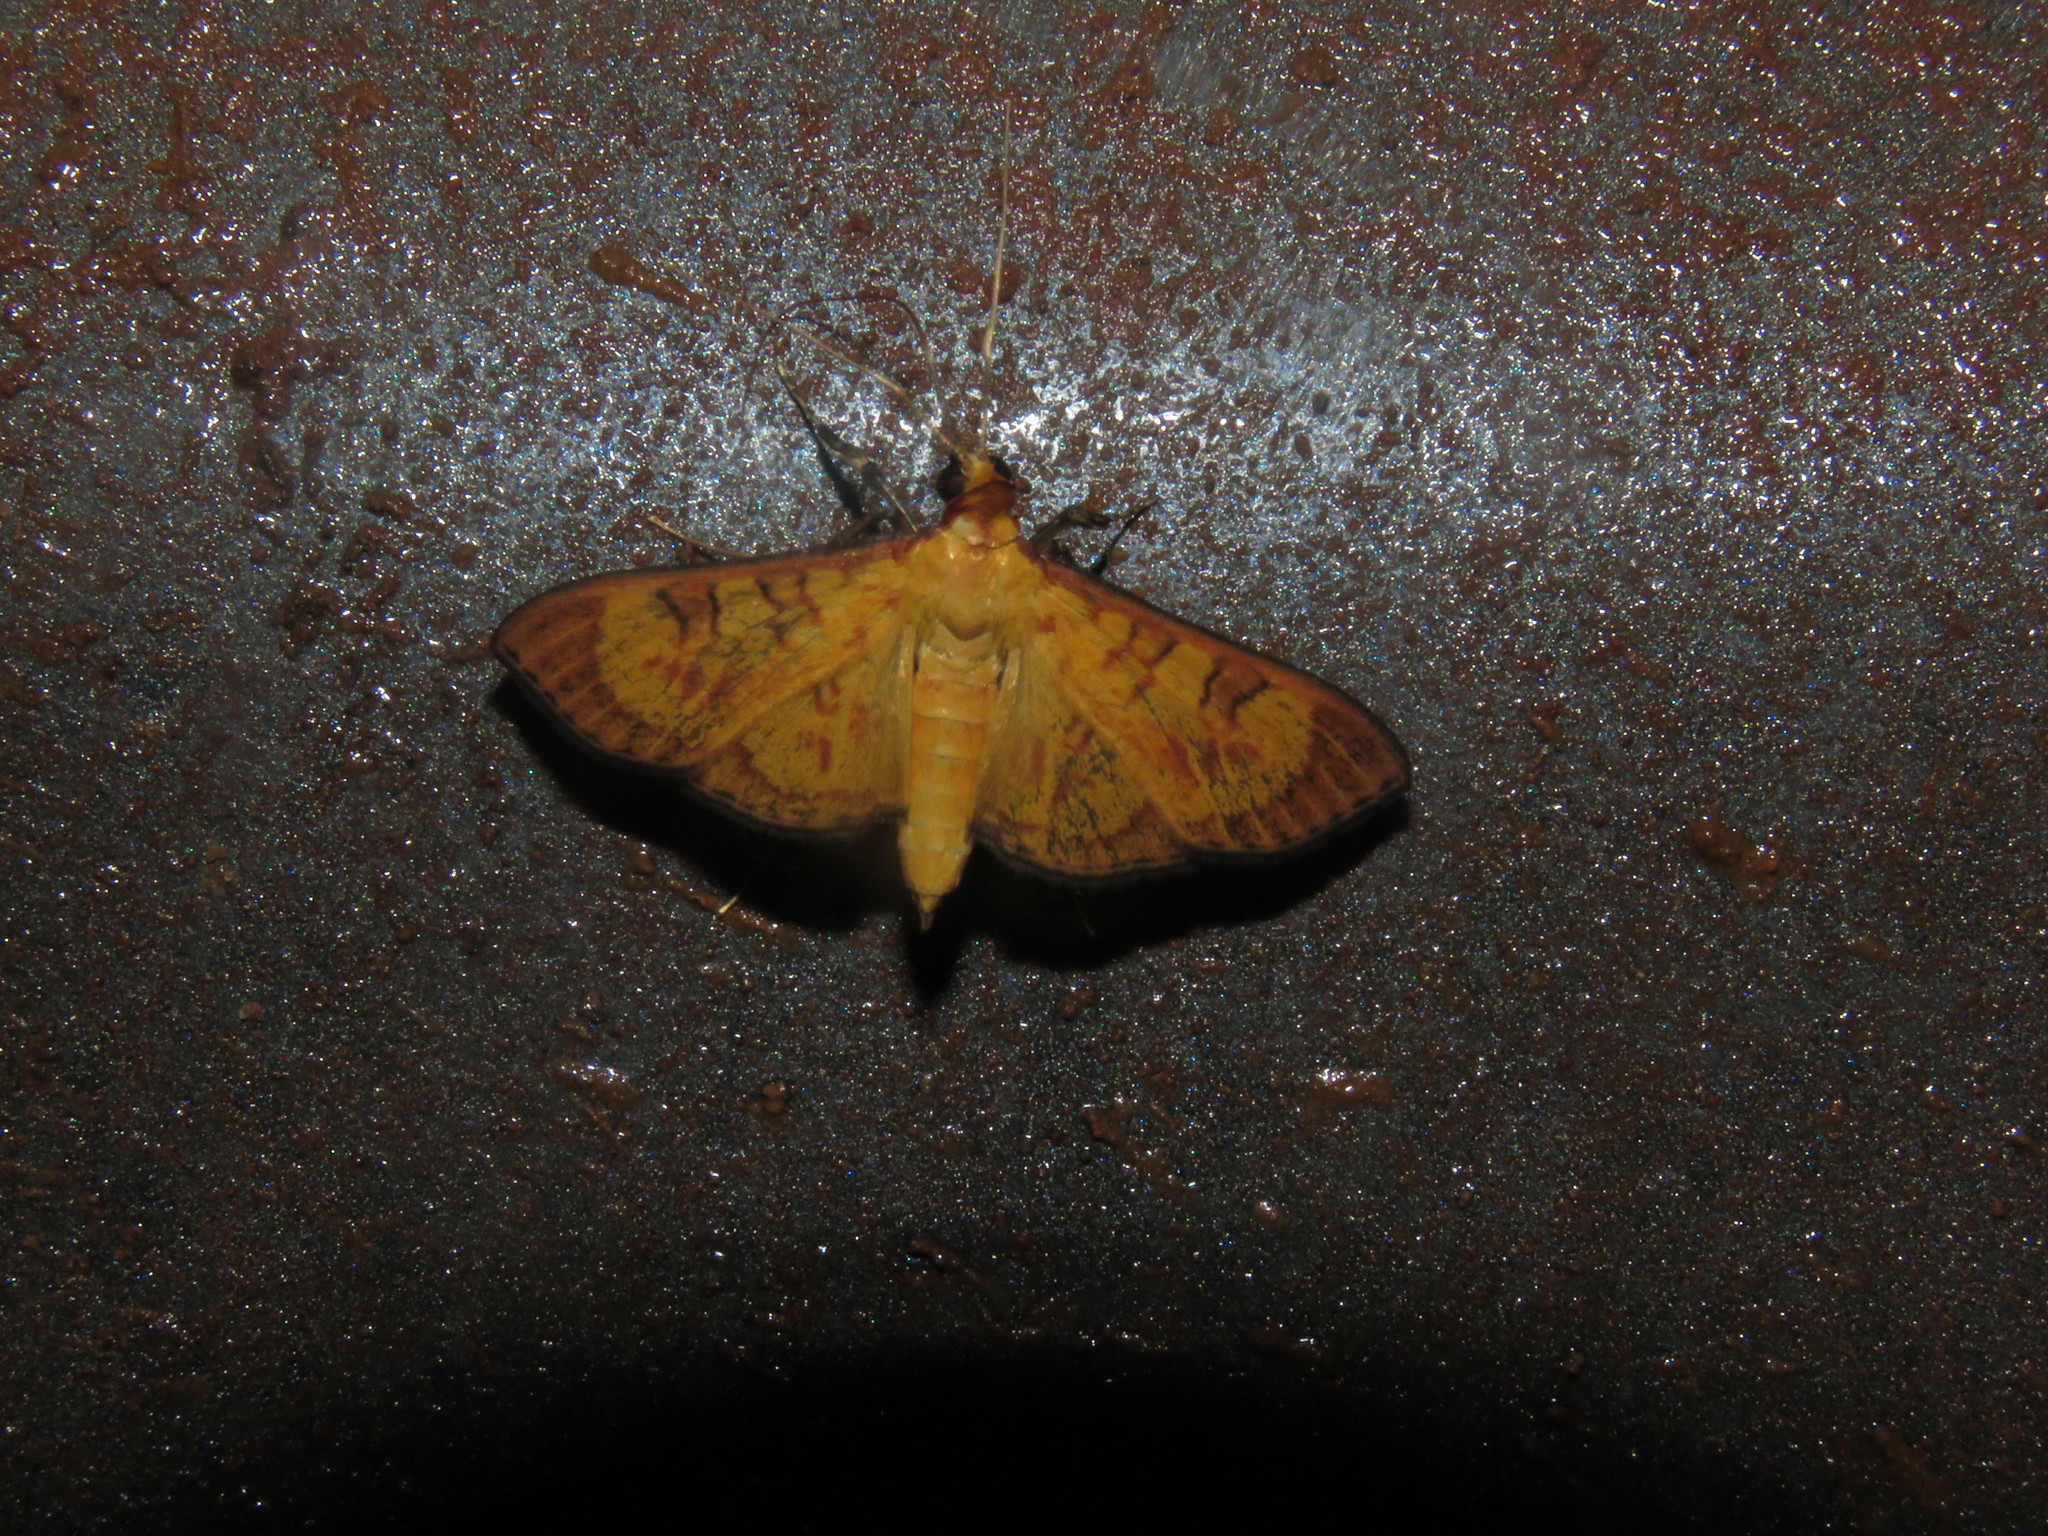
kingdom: Animalia
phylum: Arthropoda
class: Insecta
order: Lepidoptera
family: Crambidae
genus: Trithyris
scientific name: Trithyris
